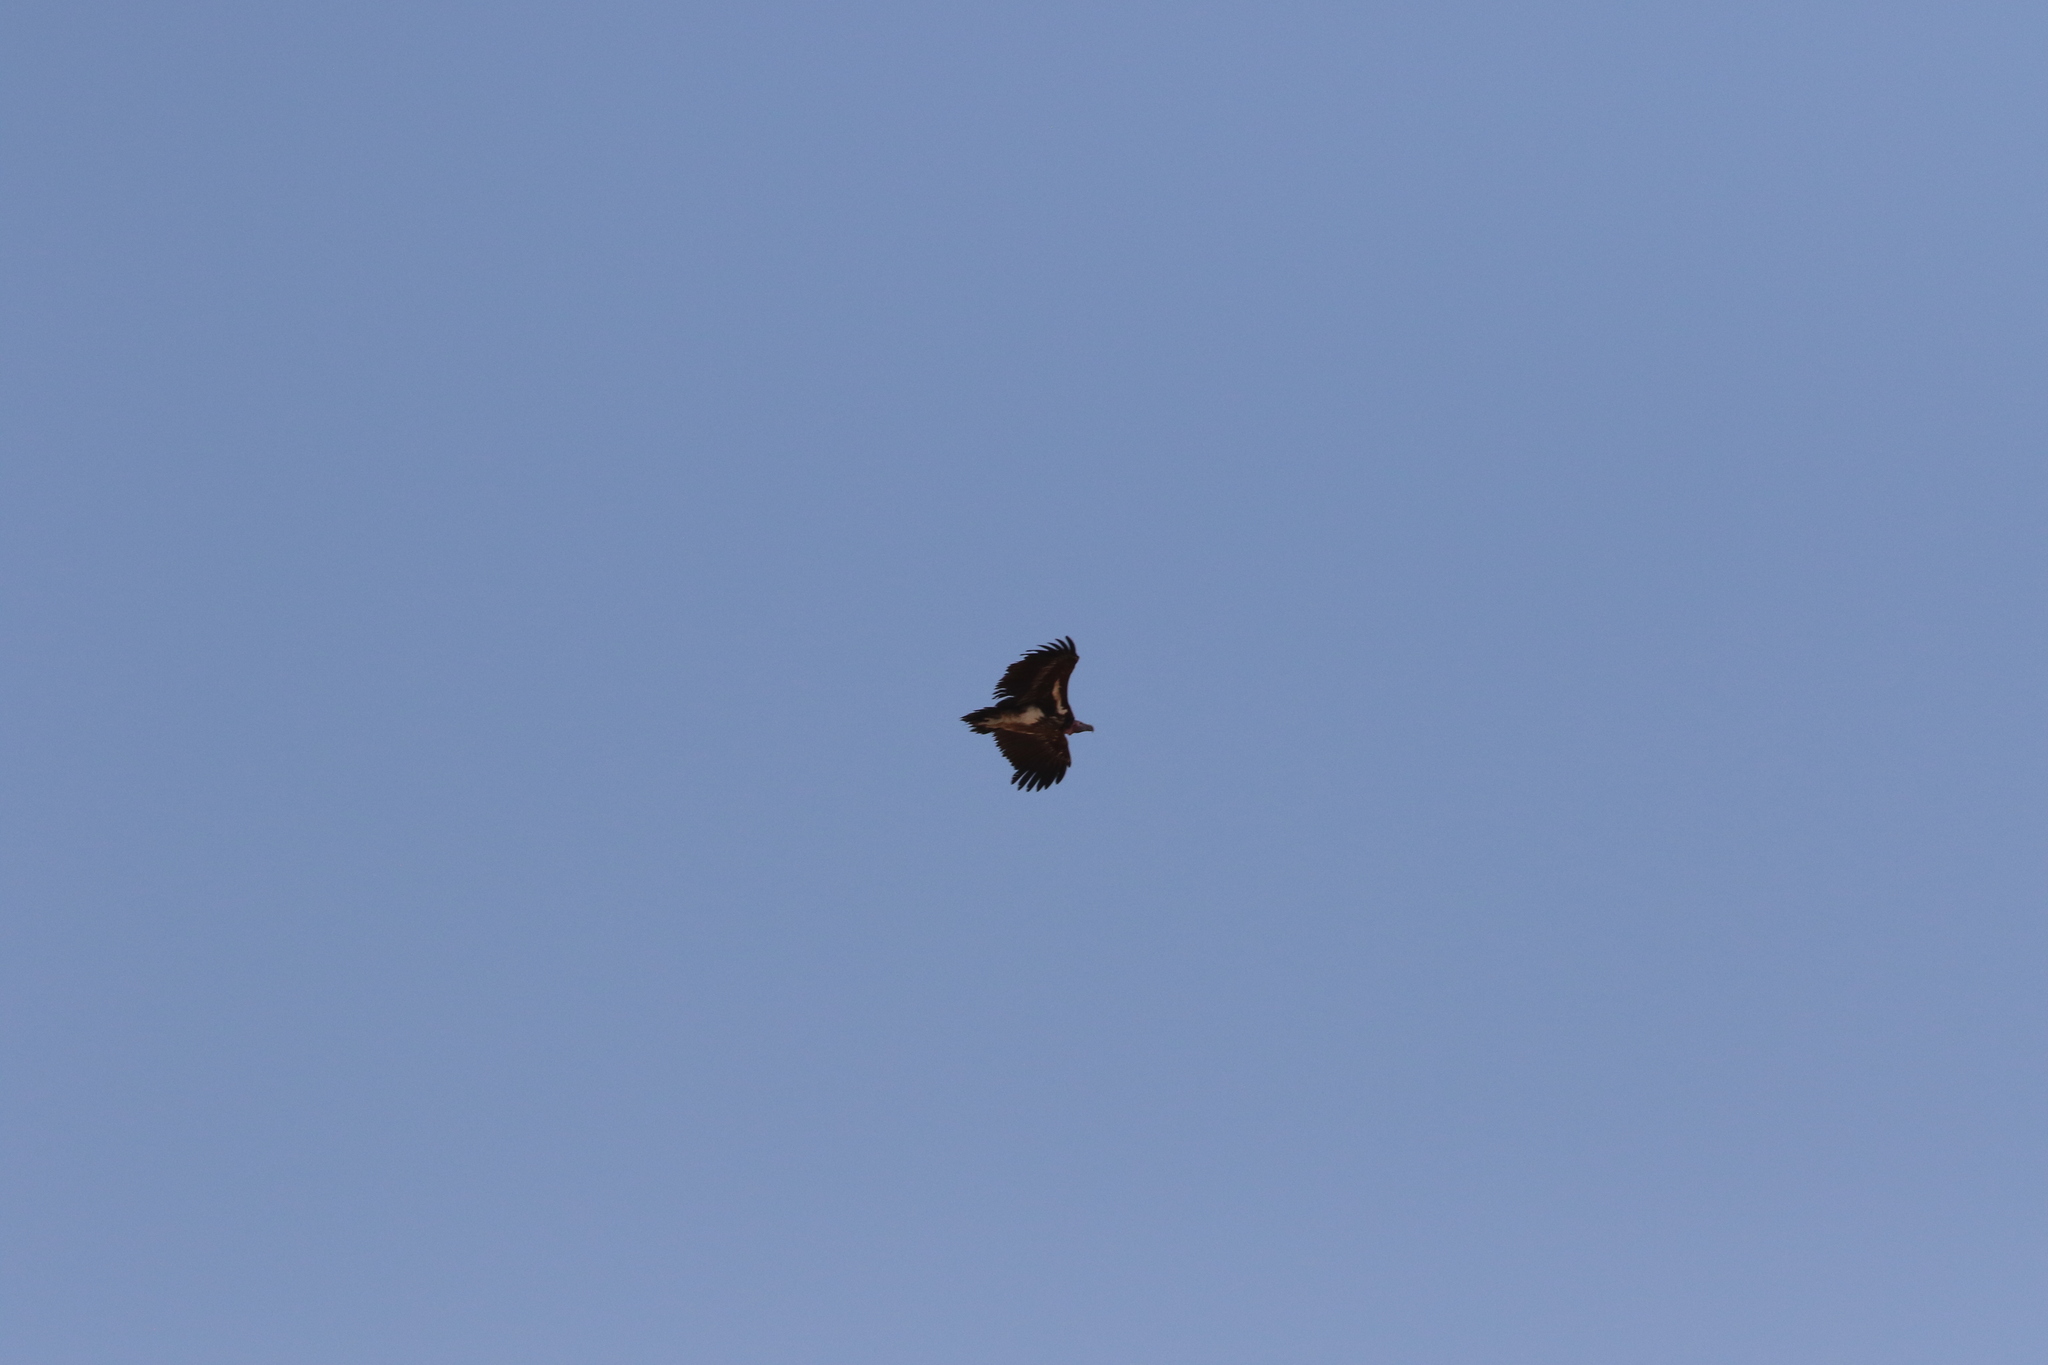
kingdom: Animalia
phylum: Chordata
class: Aves
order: Accipitriformes
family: Accipitridae
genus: Torgos
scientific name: Torgos tracheliotos
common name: Lappet-faced vulture
